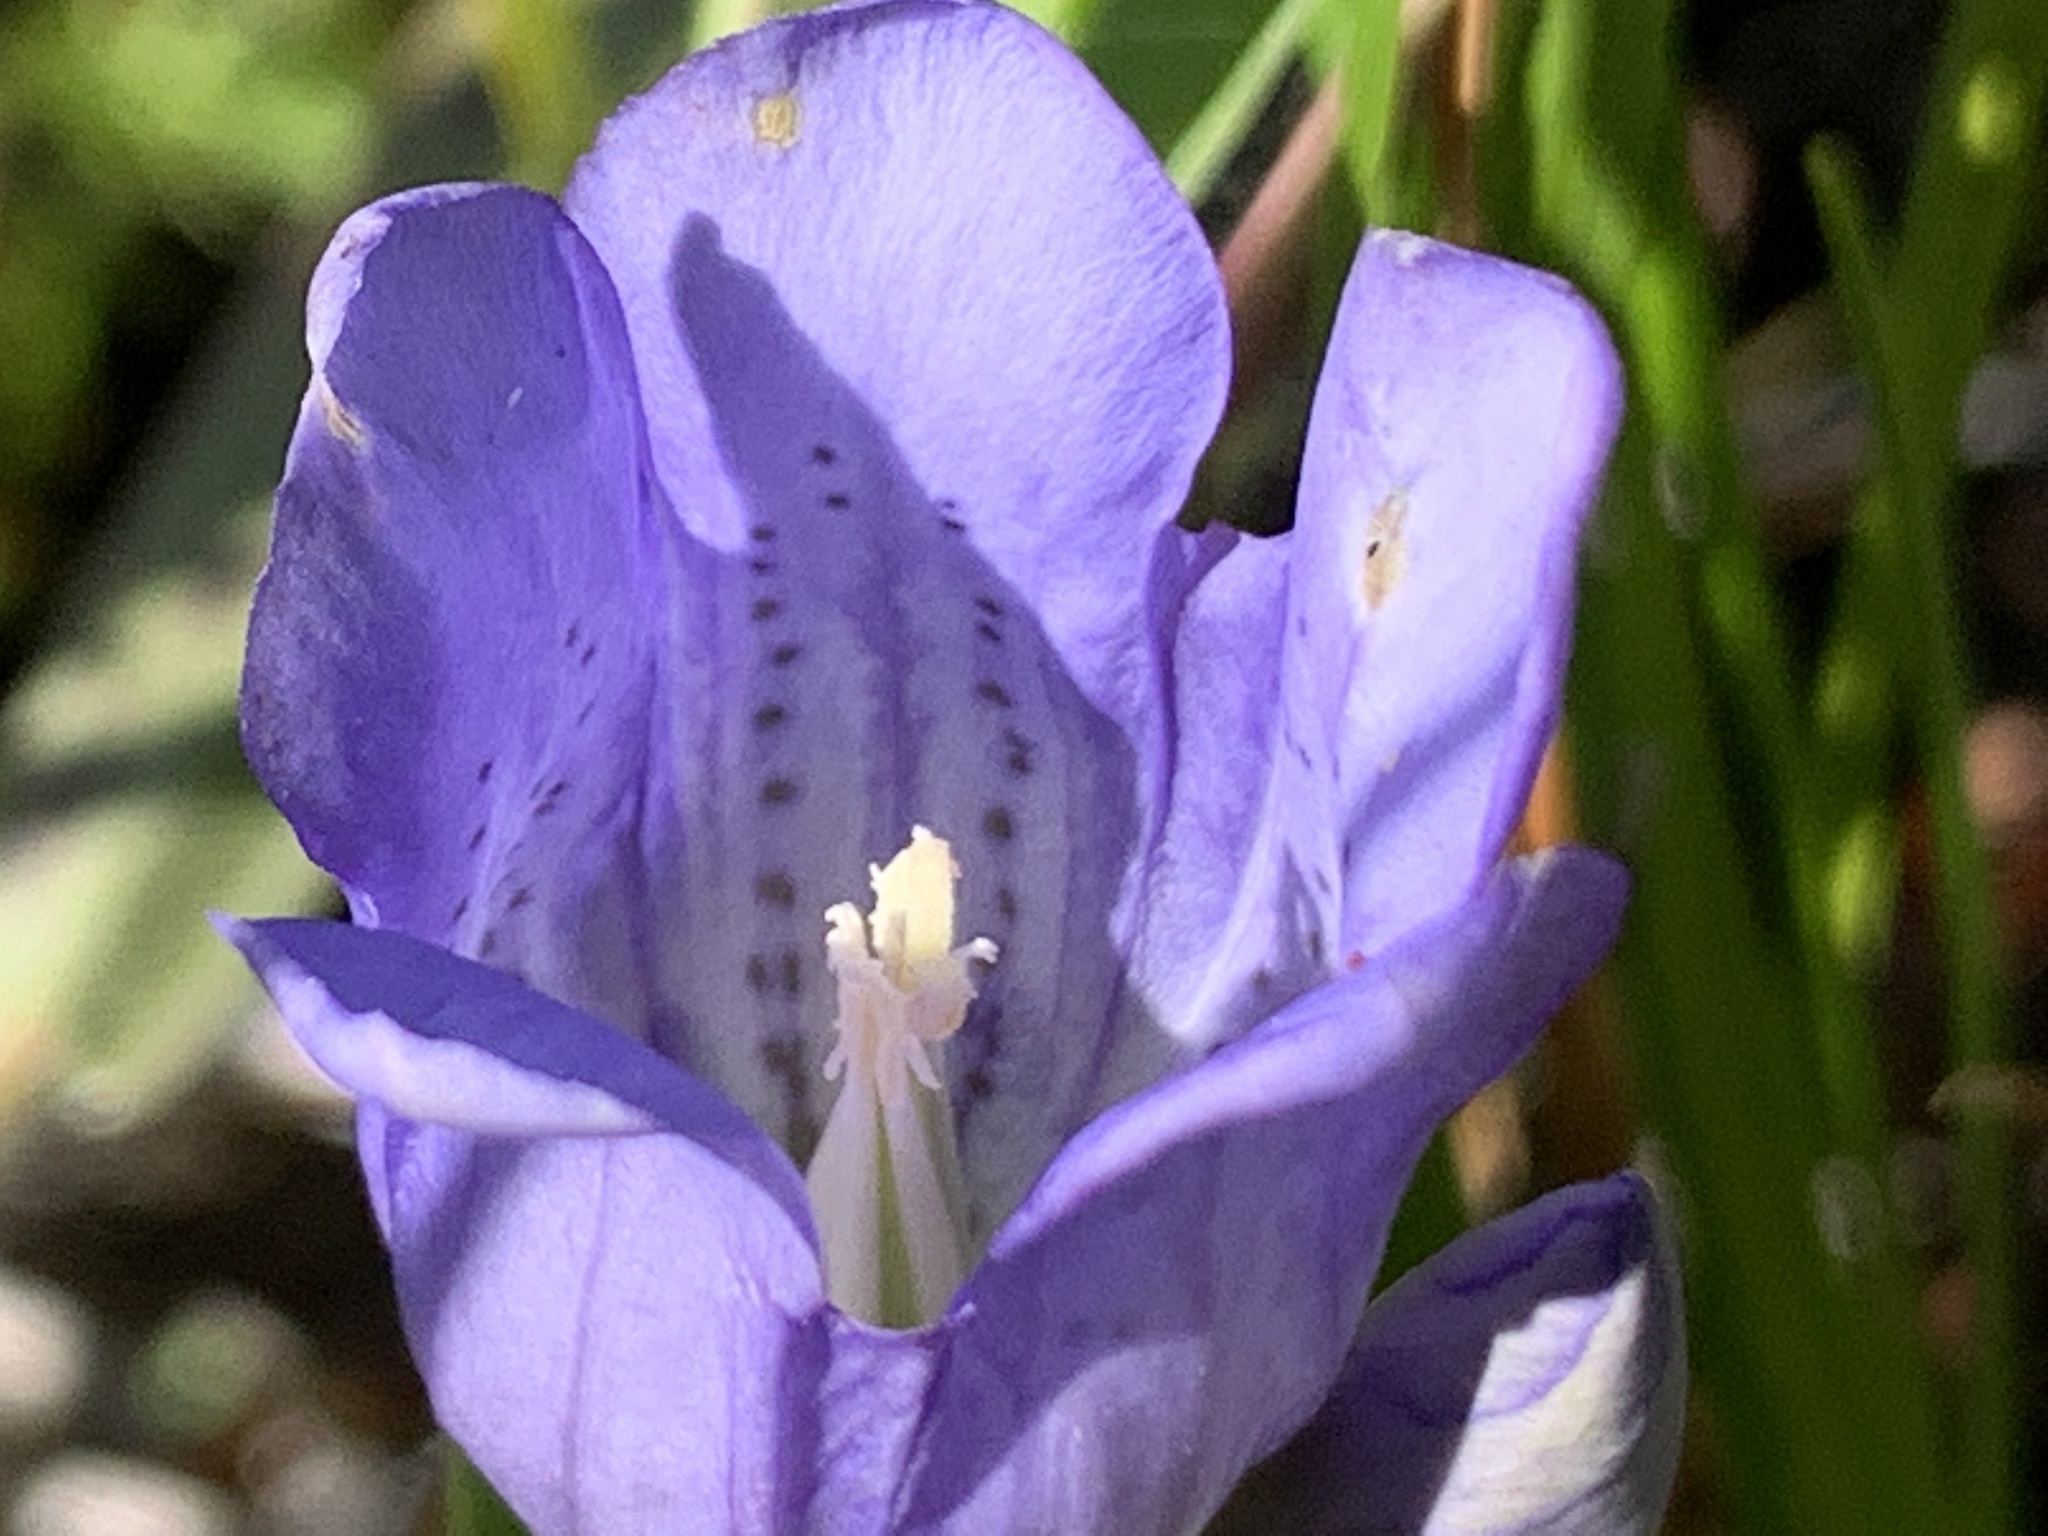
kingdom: Plantae
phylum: Tracheophyta
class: Magnoliopsida
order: Gentianales
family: Gentianaceae
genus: Gentiana
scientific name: Gentiana sceptrum
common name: Pacific gentian
